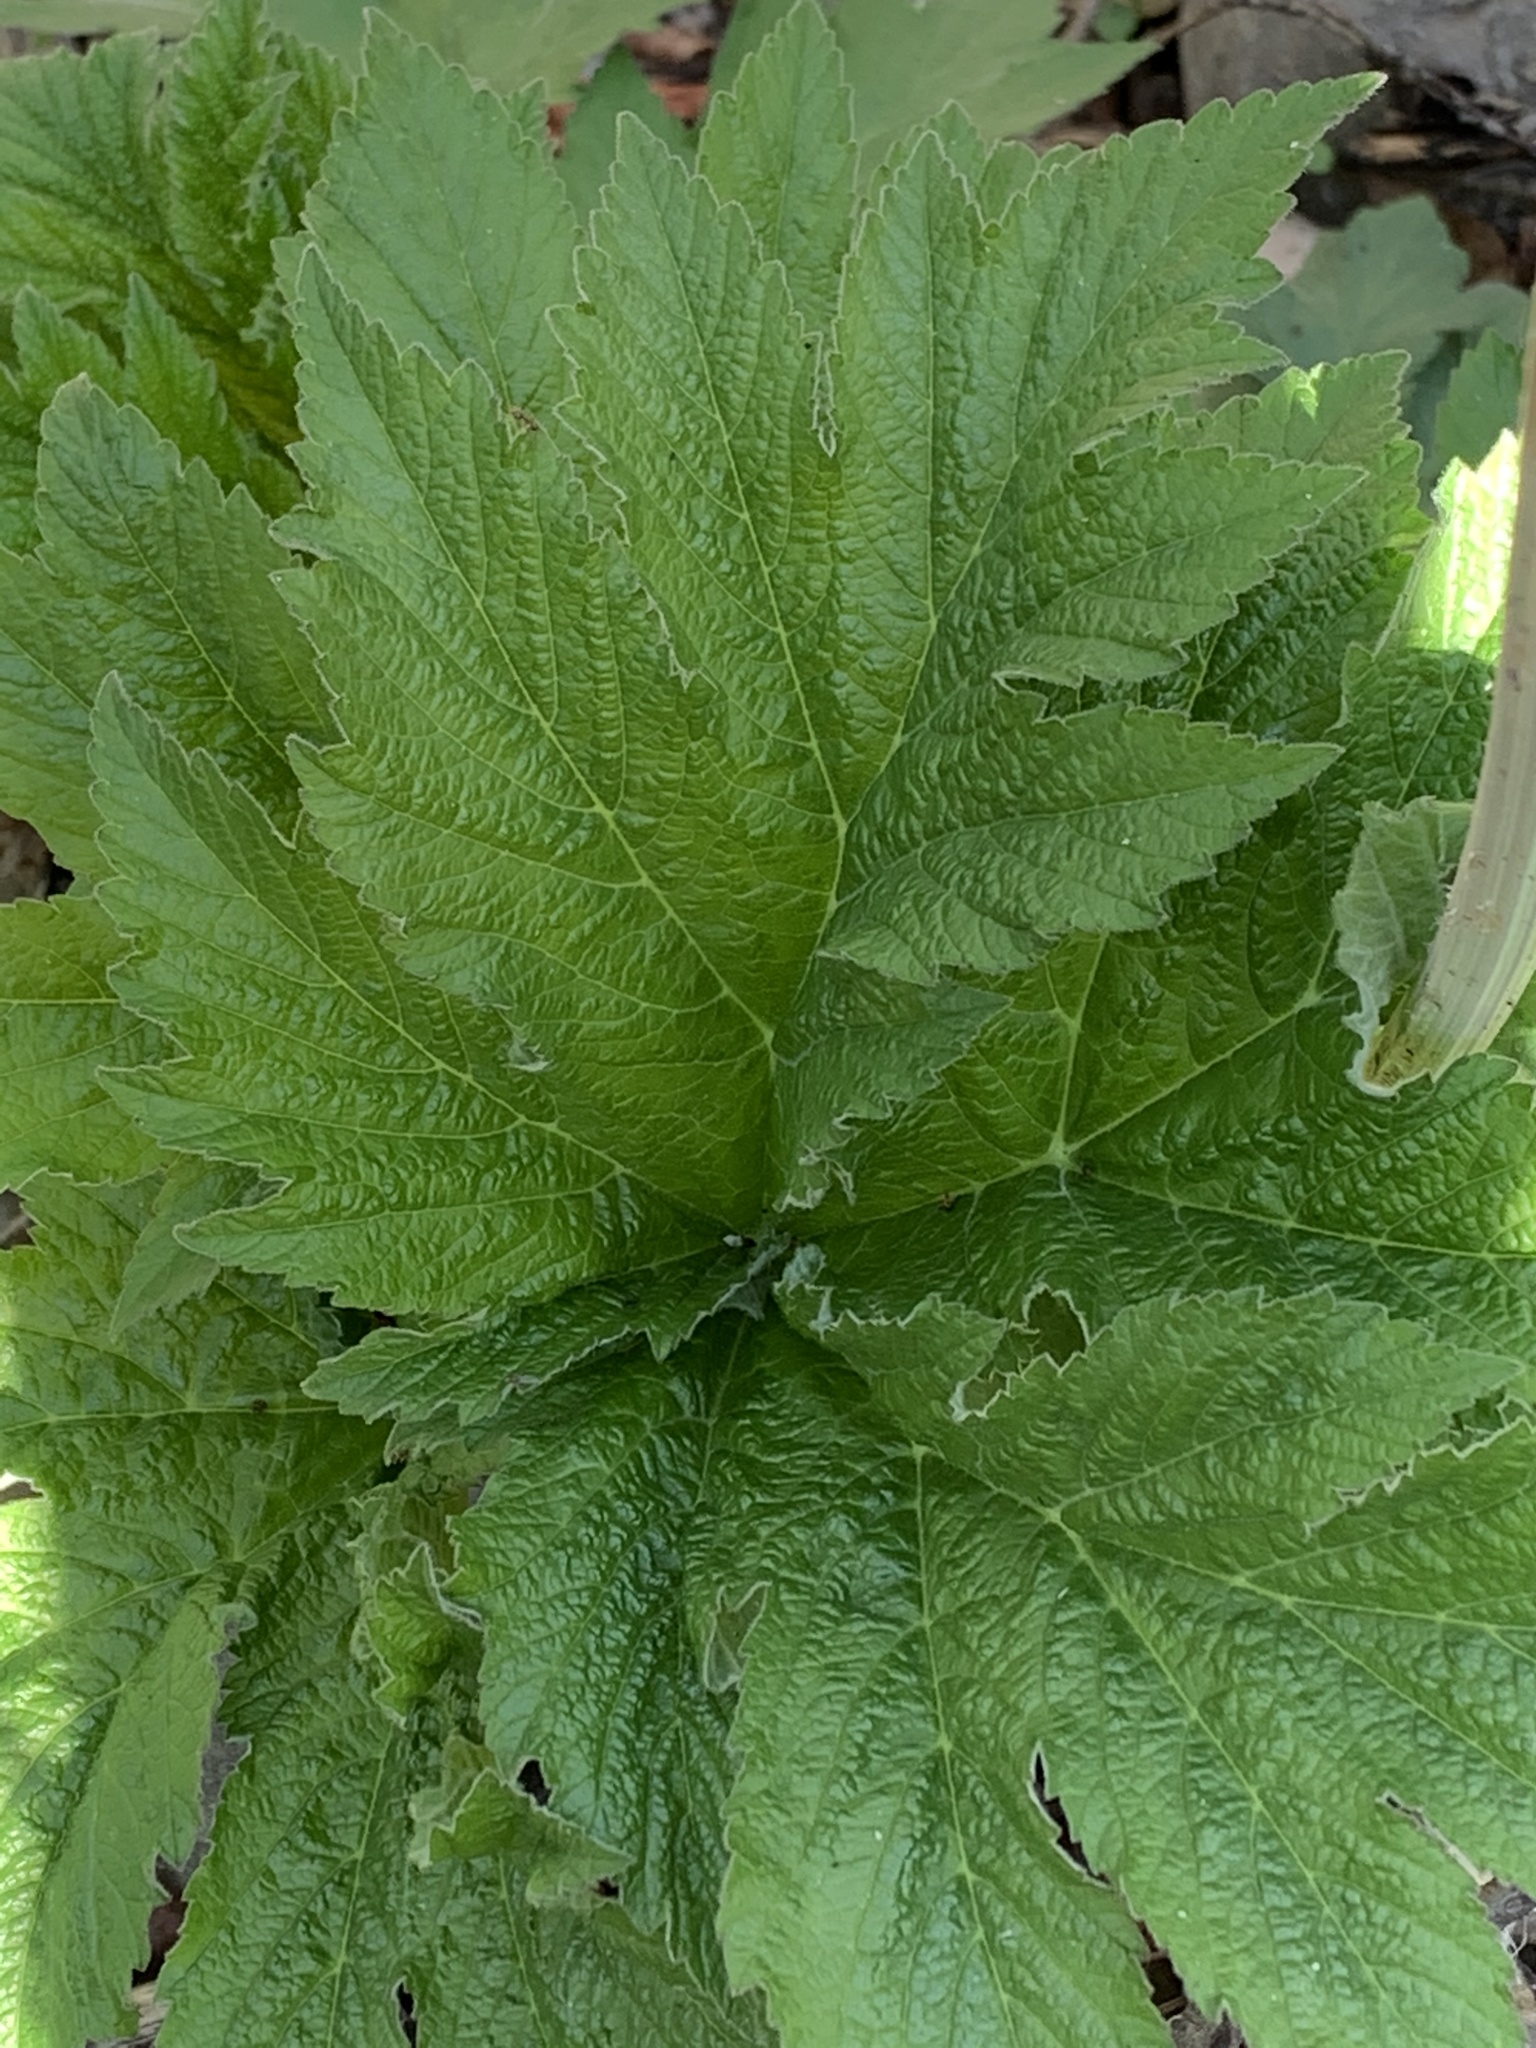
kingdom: Plantae
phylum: Tracheophyta
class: Magnoliopsida
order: Apiales
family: Apiaceae
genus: Heracleum
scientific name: Heracleum maximum
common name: American cow parsnip
